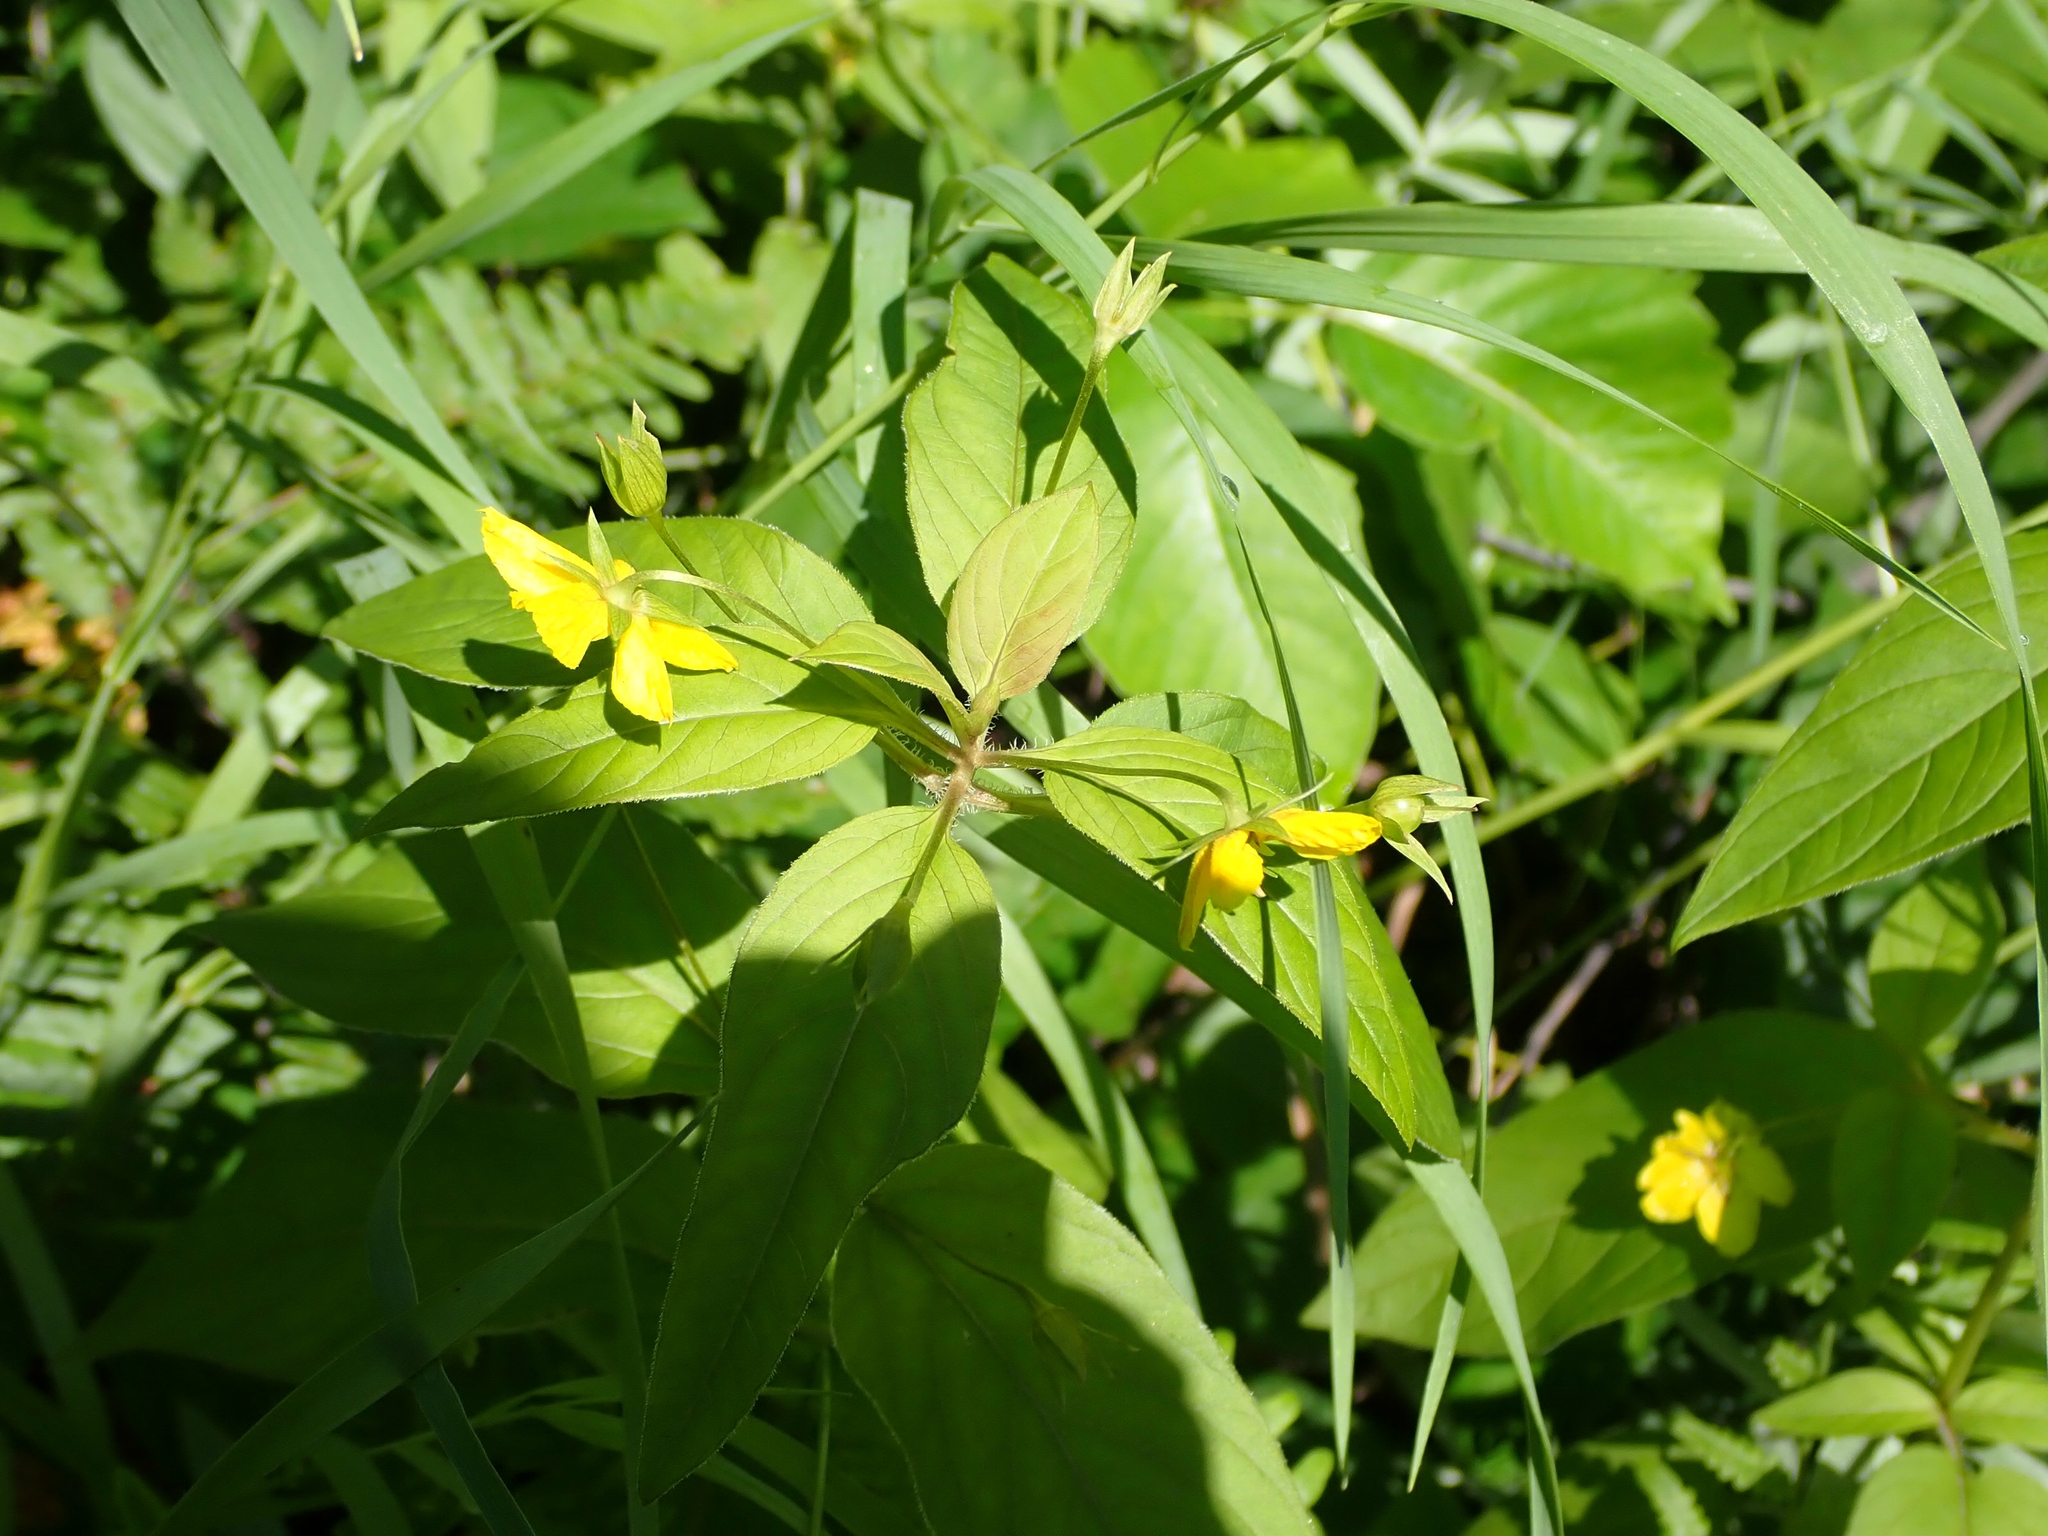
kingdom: Plantae
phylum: Tracheophyta
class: Magnoliopsida
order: Ericales
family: Primulaceae
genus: Lysimachia
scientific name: Lysimachia ciliata
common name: Fringed loosestrife
